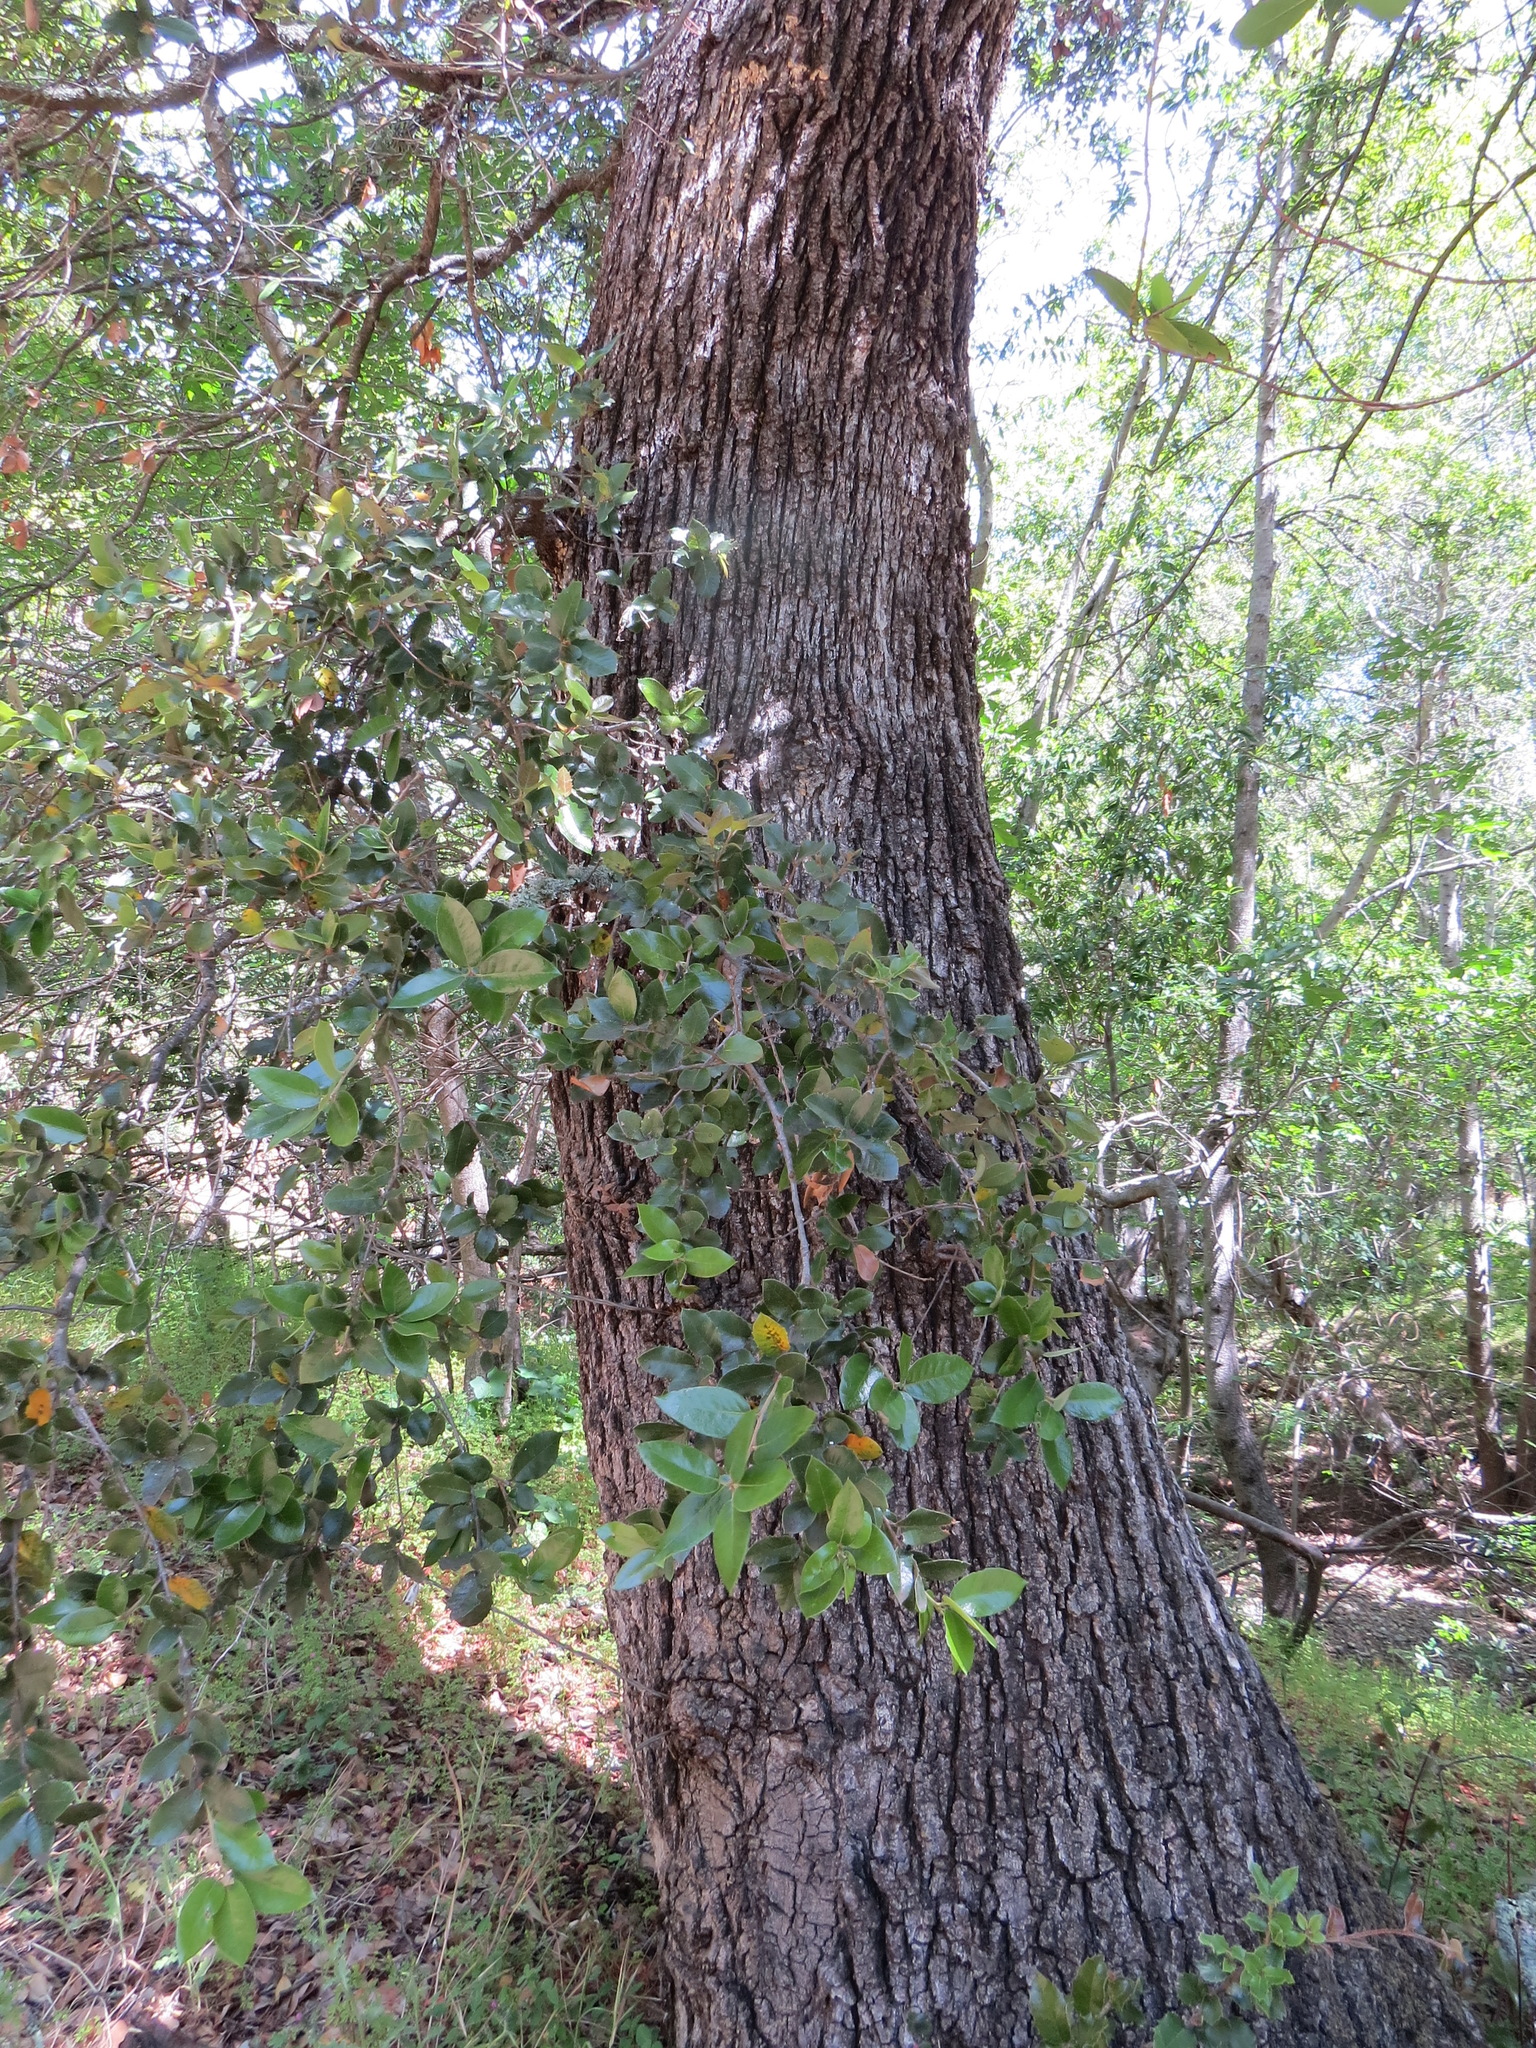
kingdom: Plantae
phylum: Tracheophyta
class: Magnoliopsida
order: Fagales
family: Fagaceae
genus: Quercus
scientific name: Quercus chrysolepis
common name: Canyon live oak
